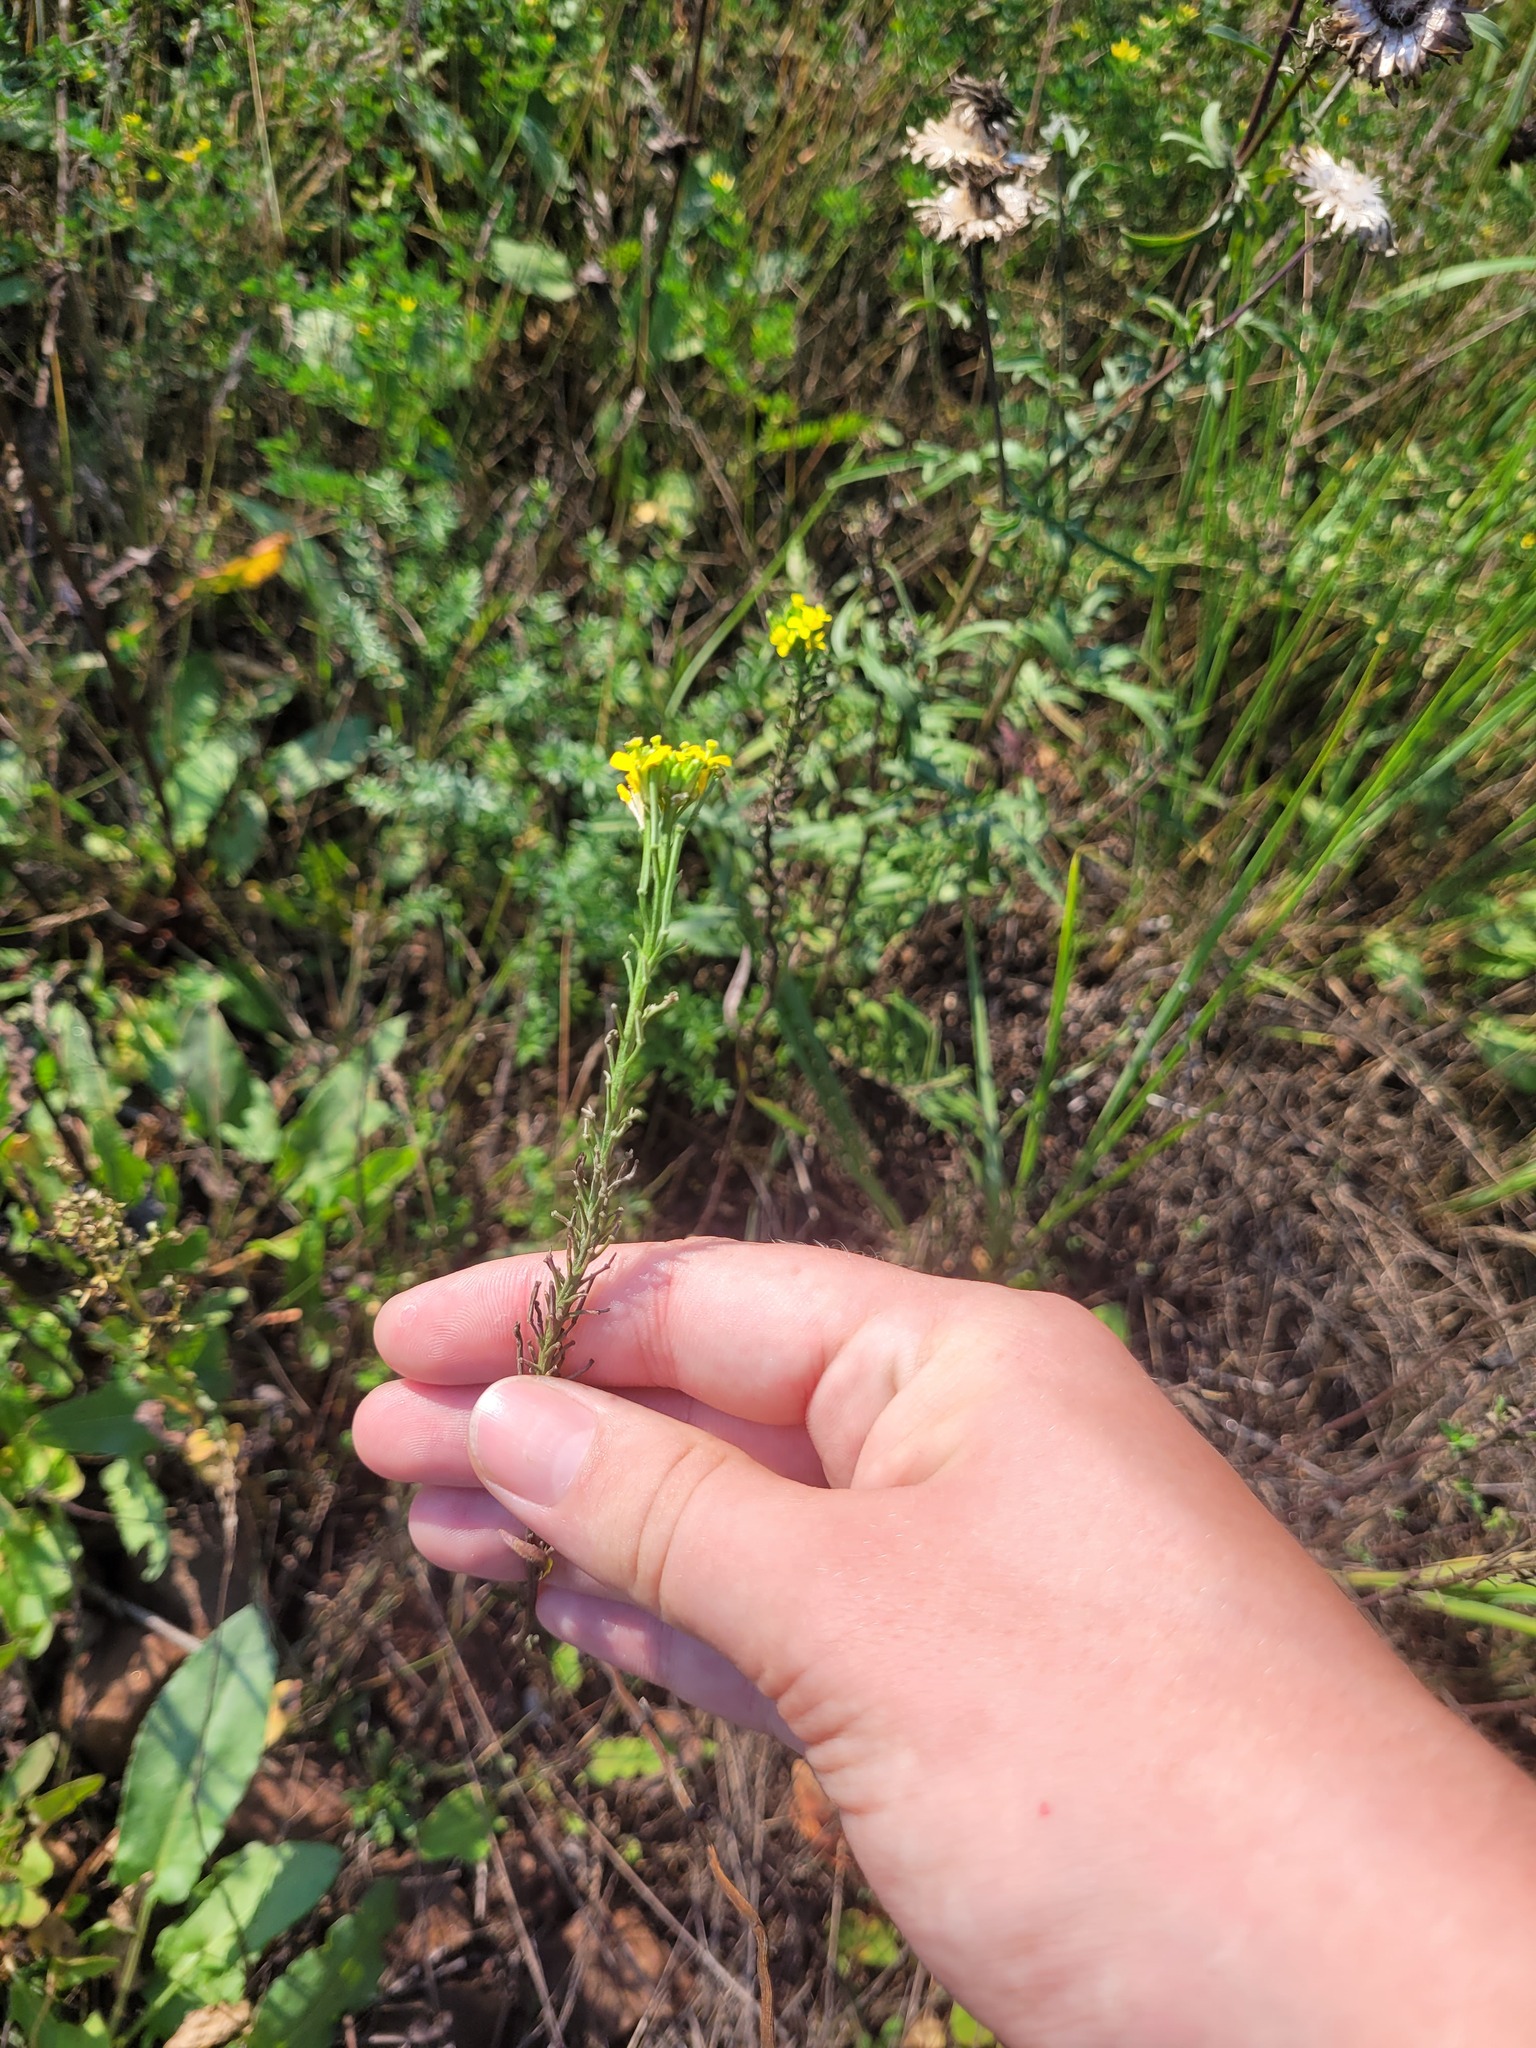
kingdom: Plantae
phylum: Tracheophyta
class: Magnoliopsida
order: Brassicales
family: Brassicaceae
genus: Erysimum
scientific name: Erysimum hieraciifolium
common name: European wallflower
